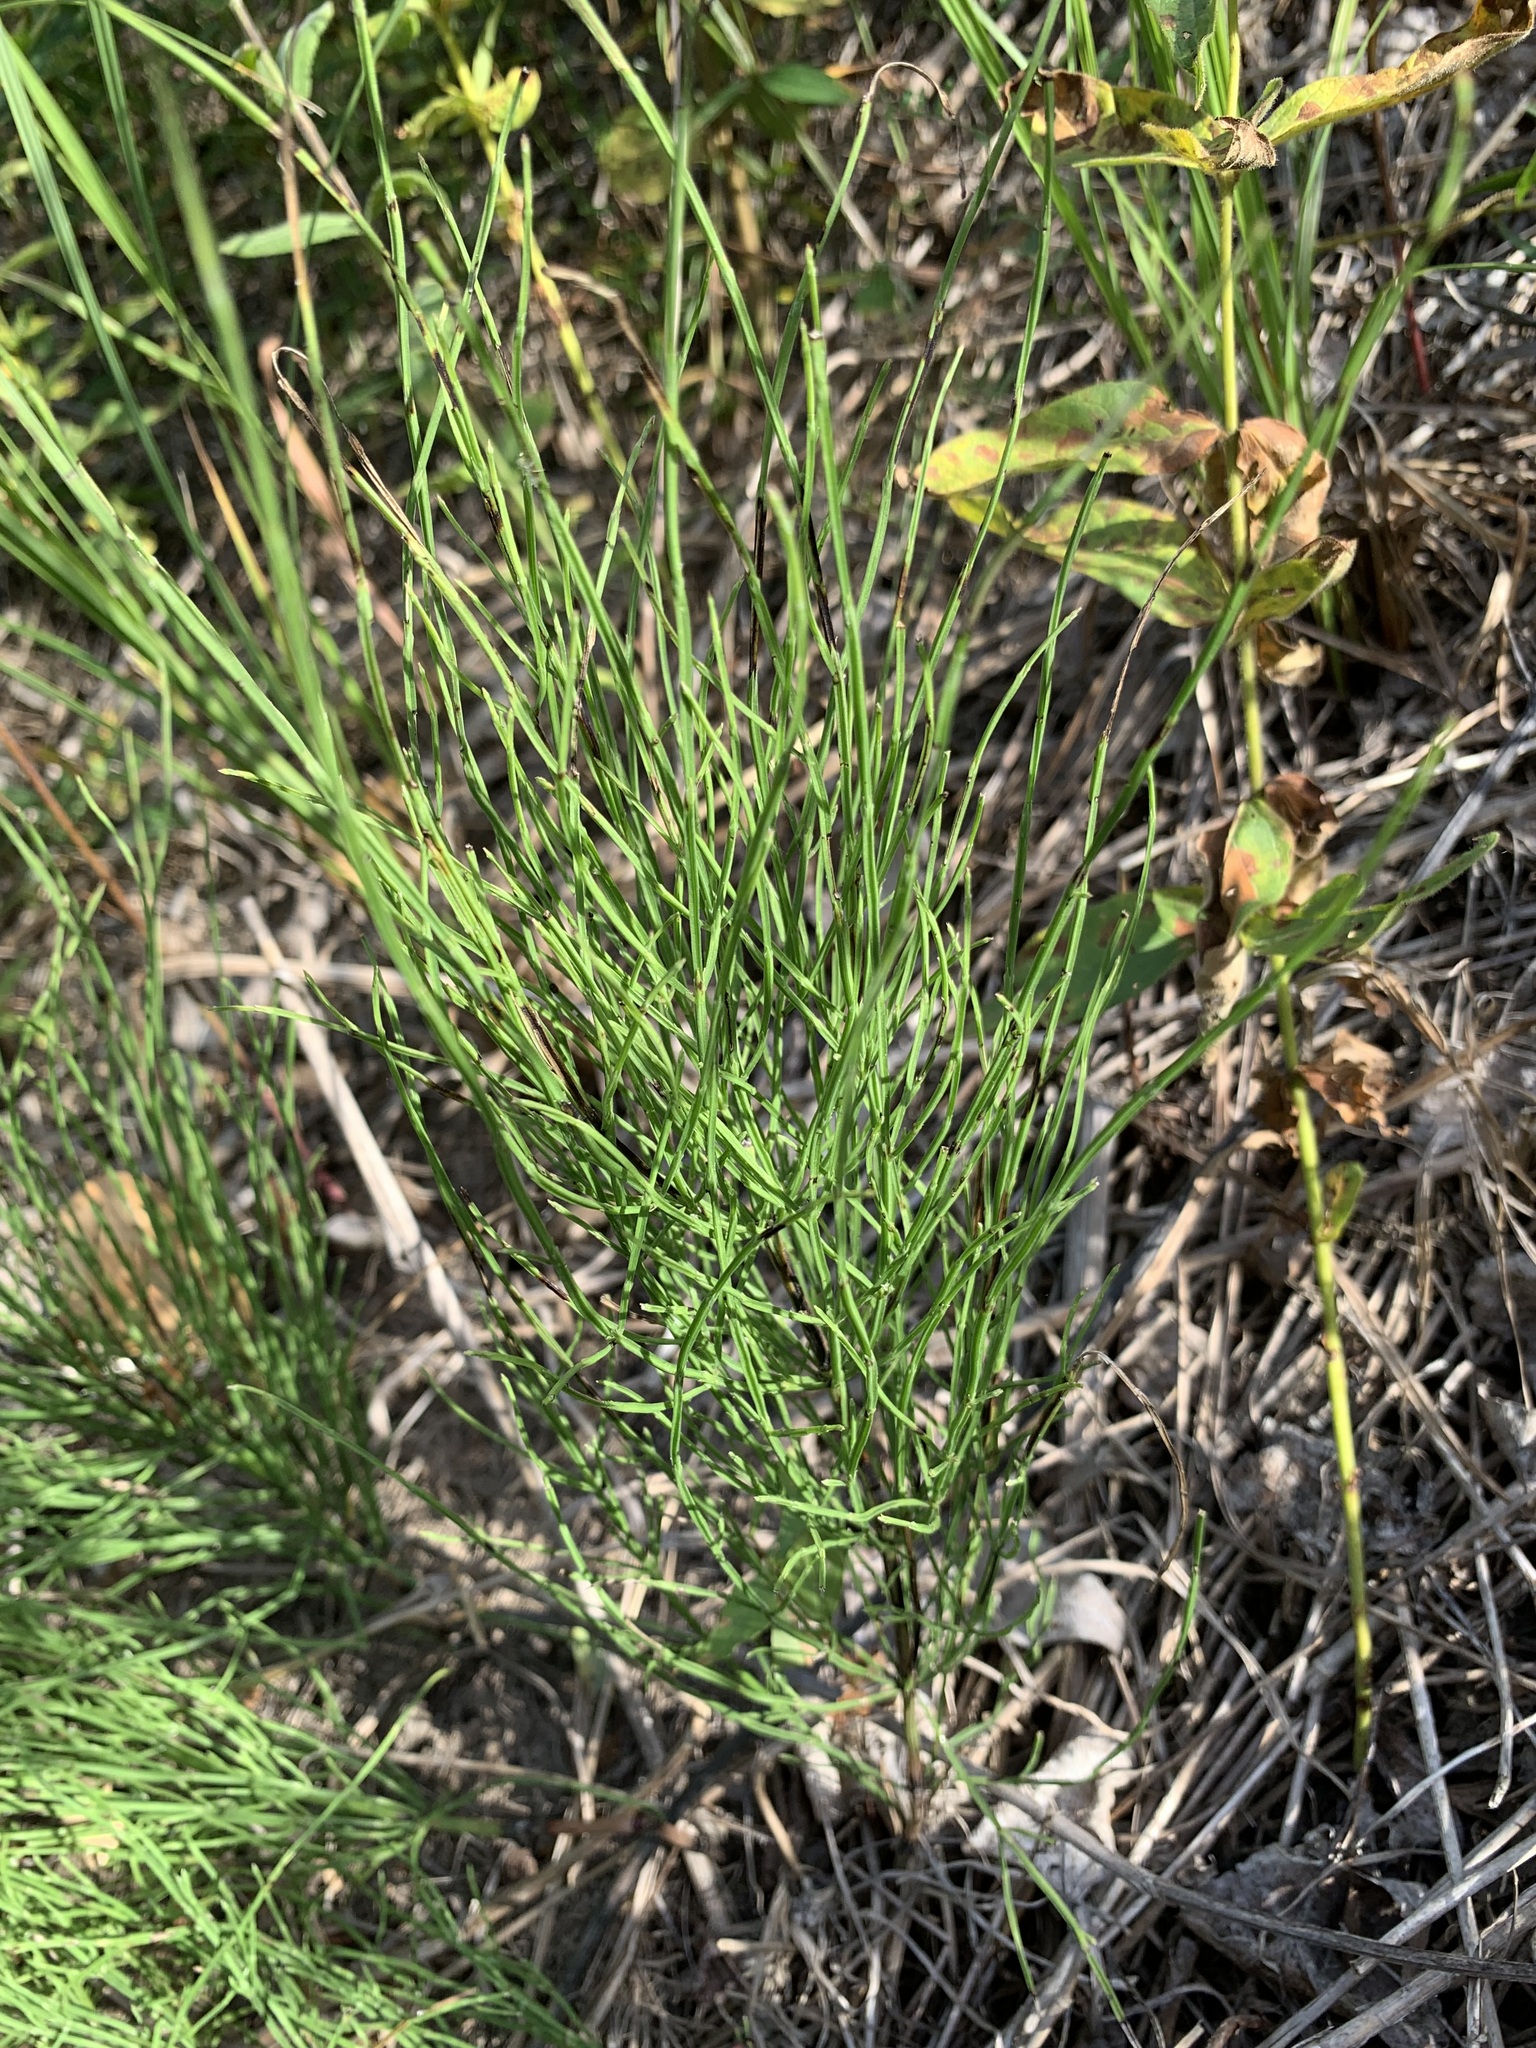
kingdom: Plantae
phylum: Tracheophyta
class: Polypodiopsida
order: Equisetales
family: Equisetaceae
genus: Equisetum
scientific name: Equisetum arvense
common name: Field horsetail
